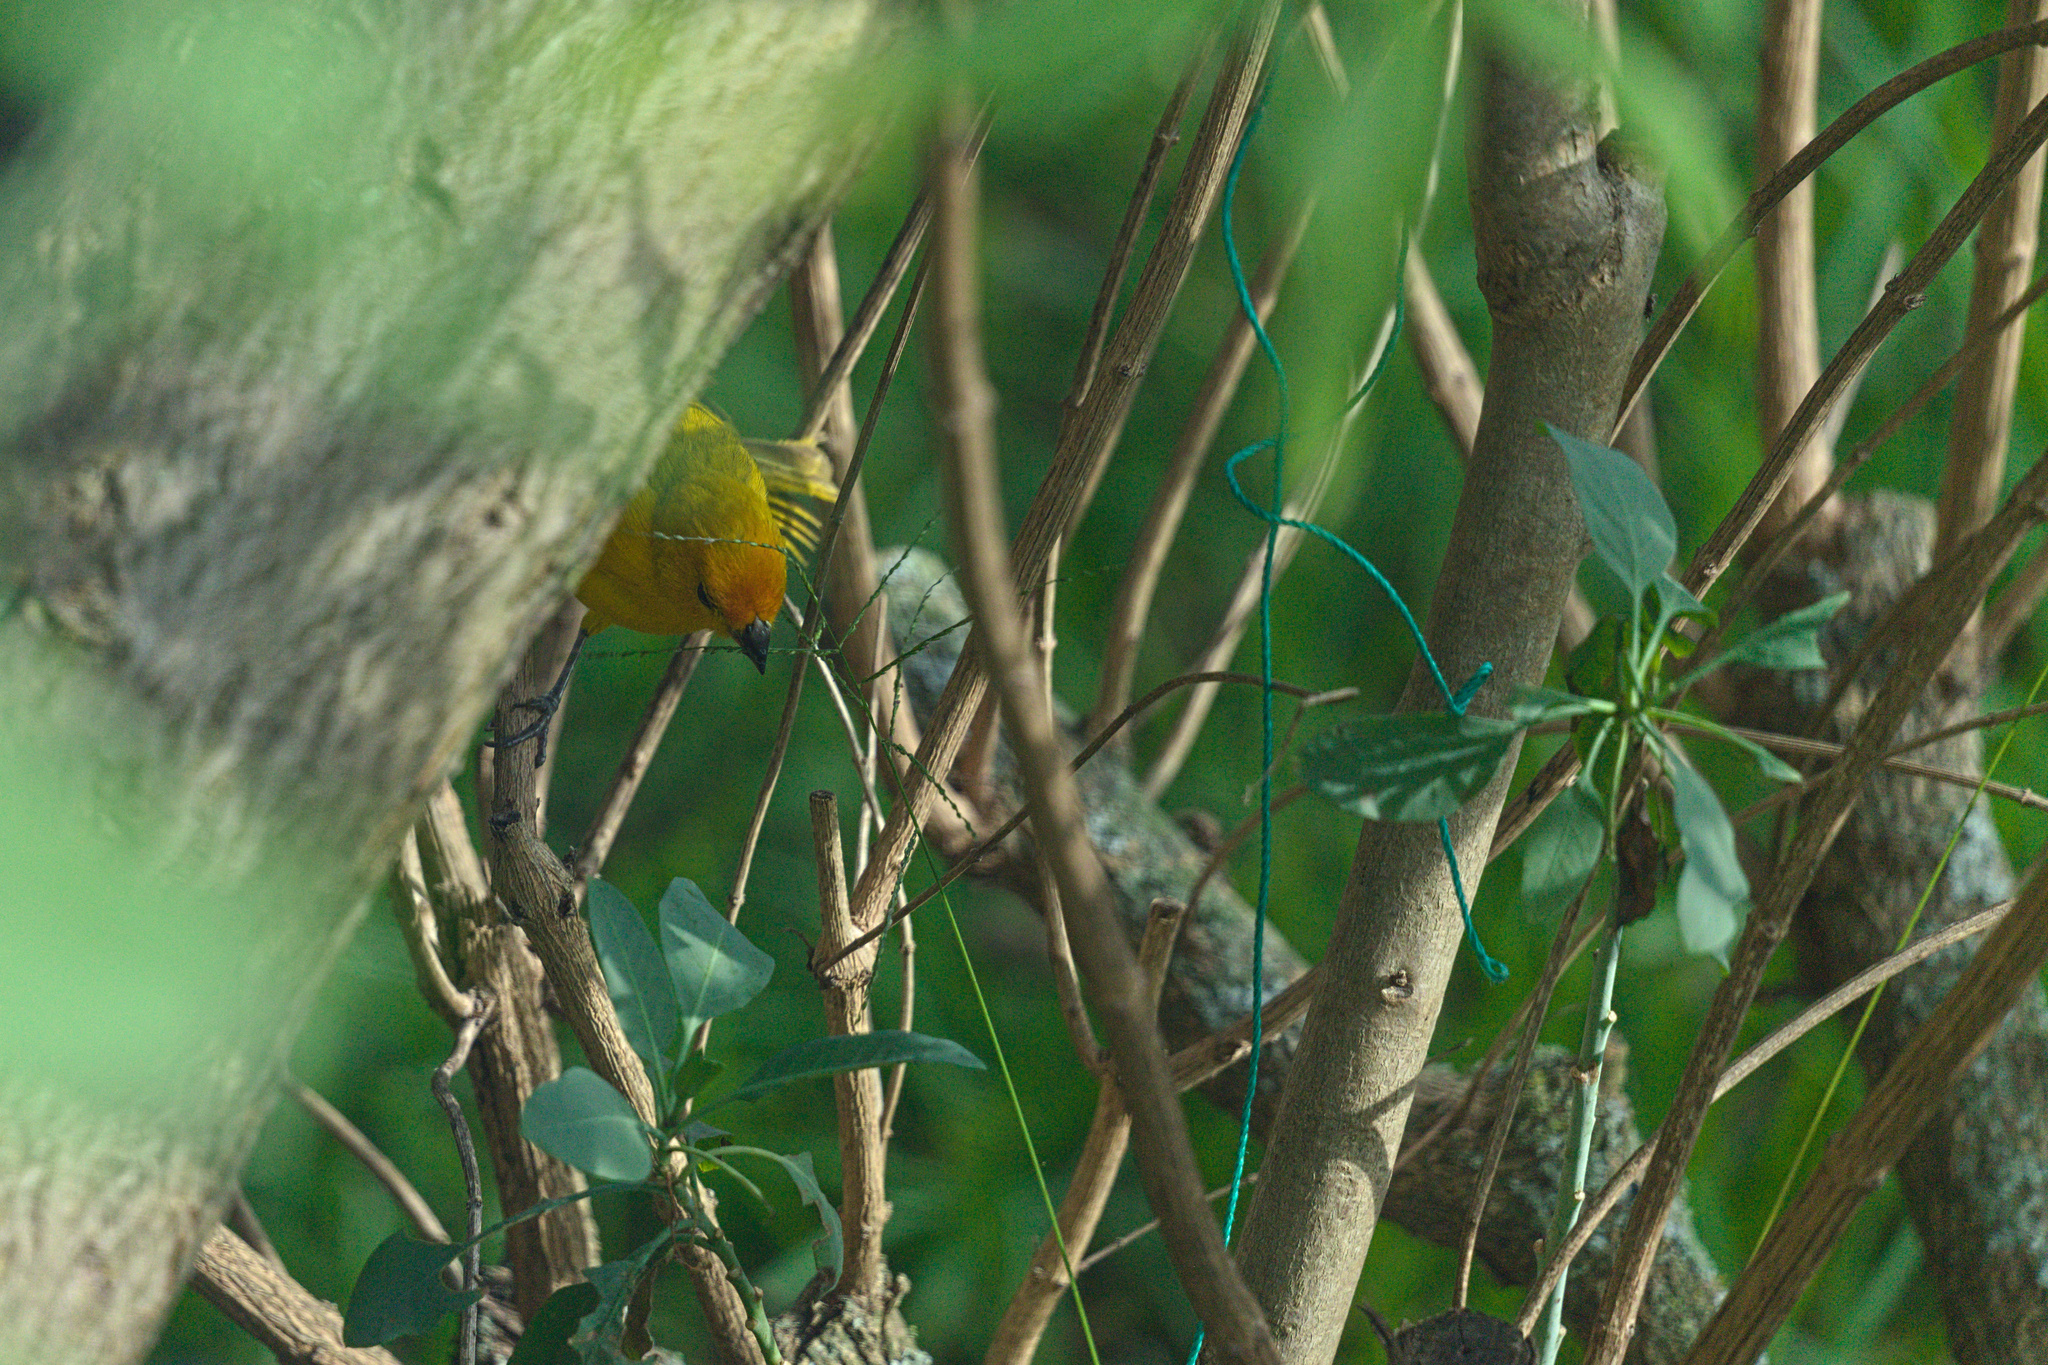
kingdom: Animalia
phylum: Chordata
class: Aves
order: Passeriformes
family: Thraupidae
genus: Sicalis
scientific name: Sicalis flaveola
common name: Saffron finch
